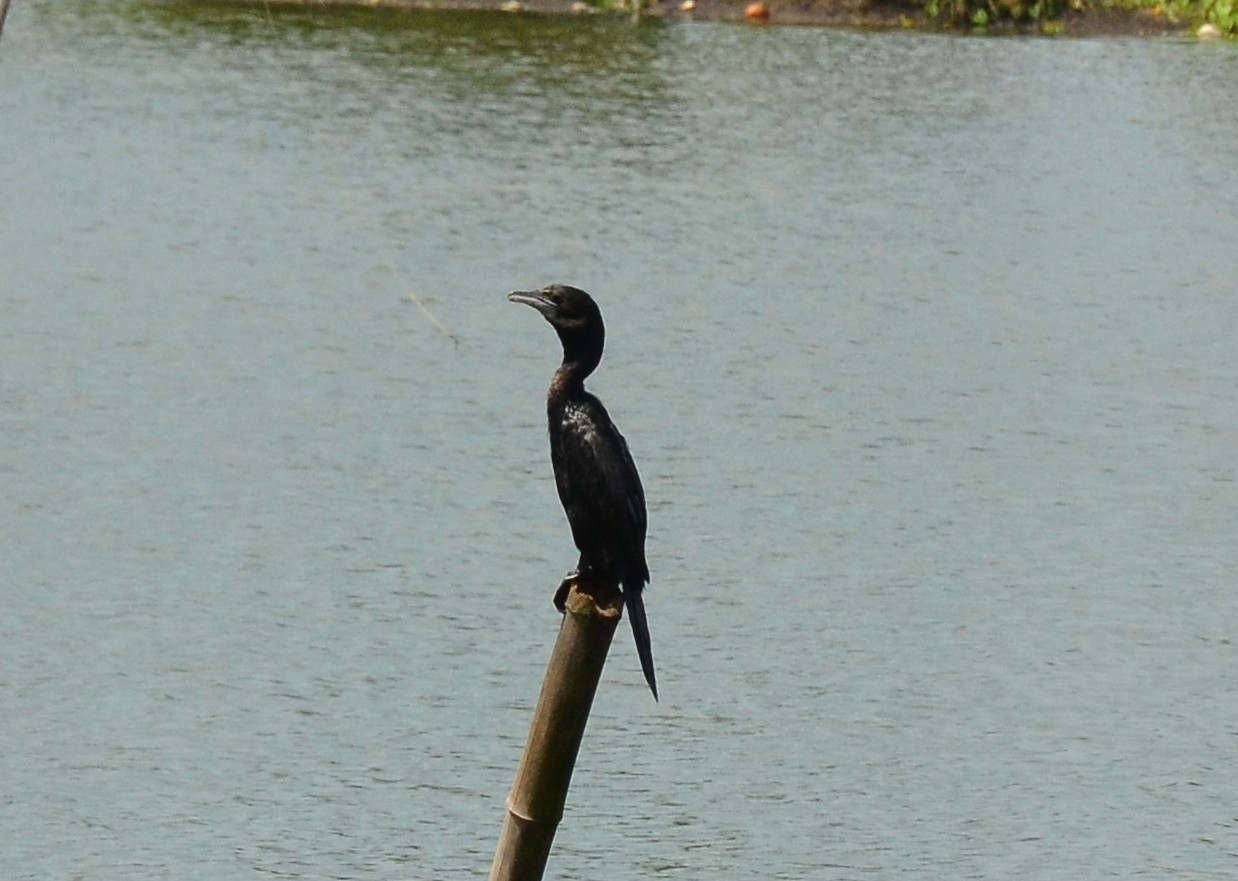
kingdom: Animalia
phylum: Chordata
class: Aves
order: Suliformes
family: Phalacrocoracidae
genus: Microcarbo
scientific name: Microcarbo niger
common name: Little cormorant
